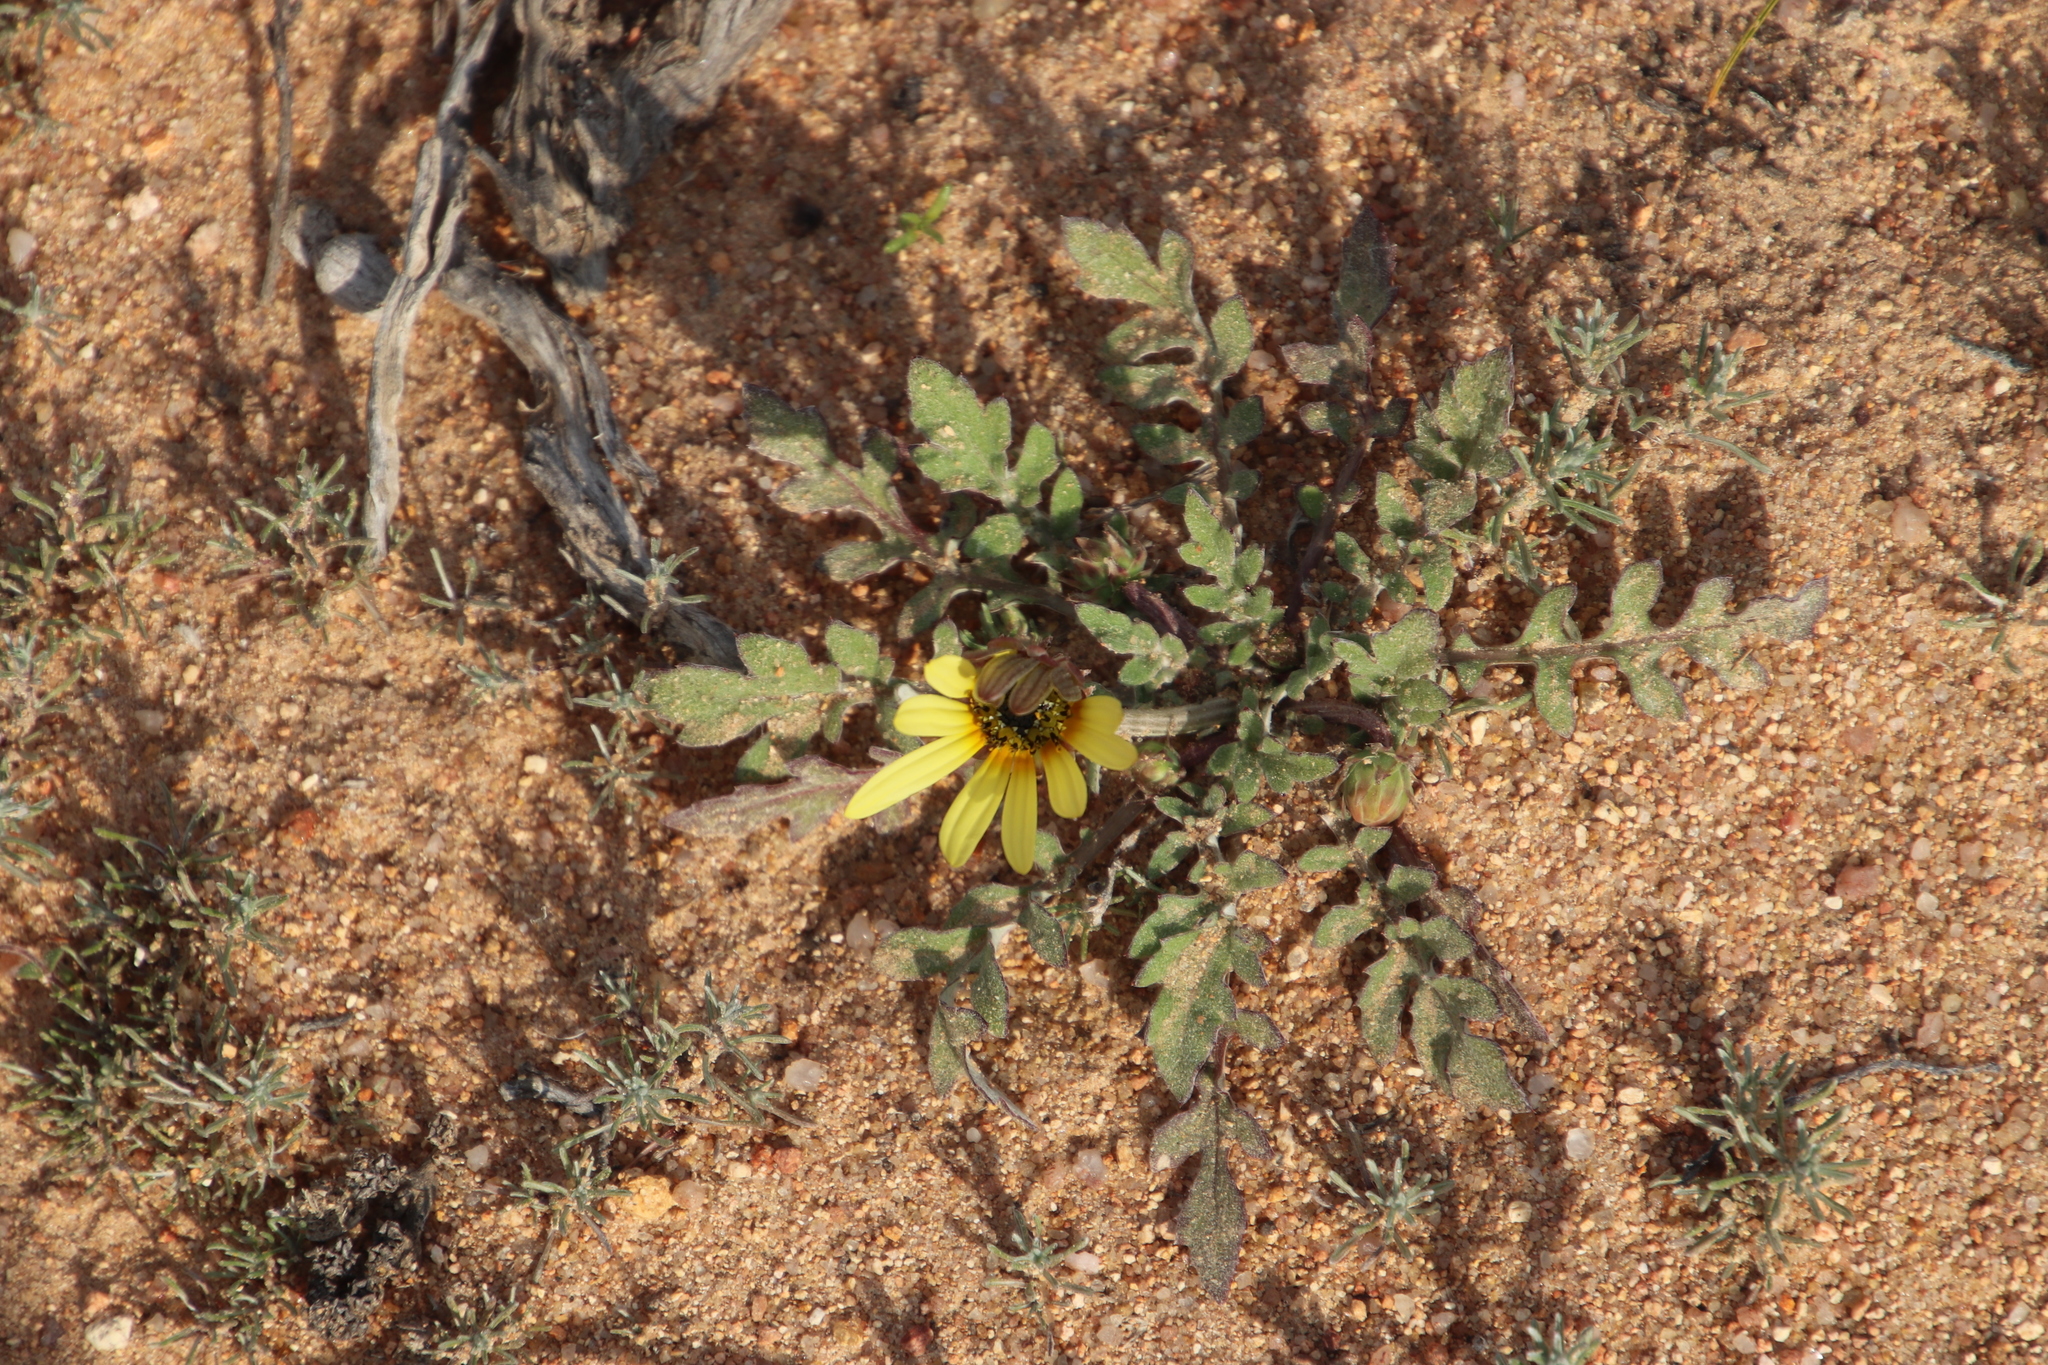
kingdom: Plantae
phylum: Tracheophyta
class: Magnoliopsida
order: Asterales
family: Asteraceae
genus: Arctotheca
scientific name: Arctotheca calendula
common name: Capeweed
